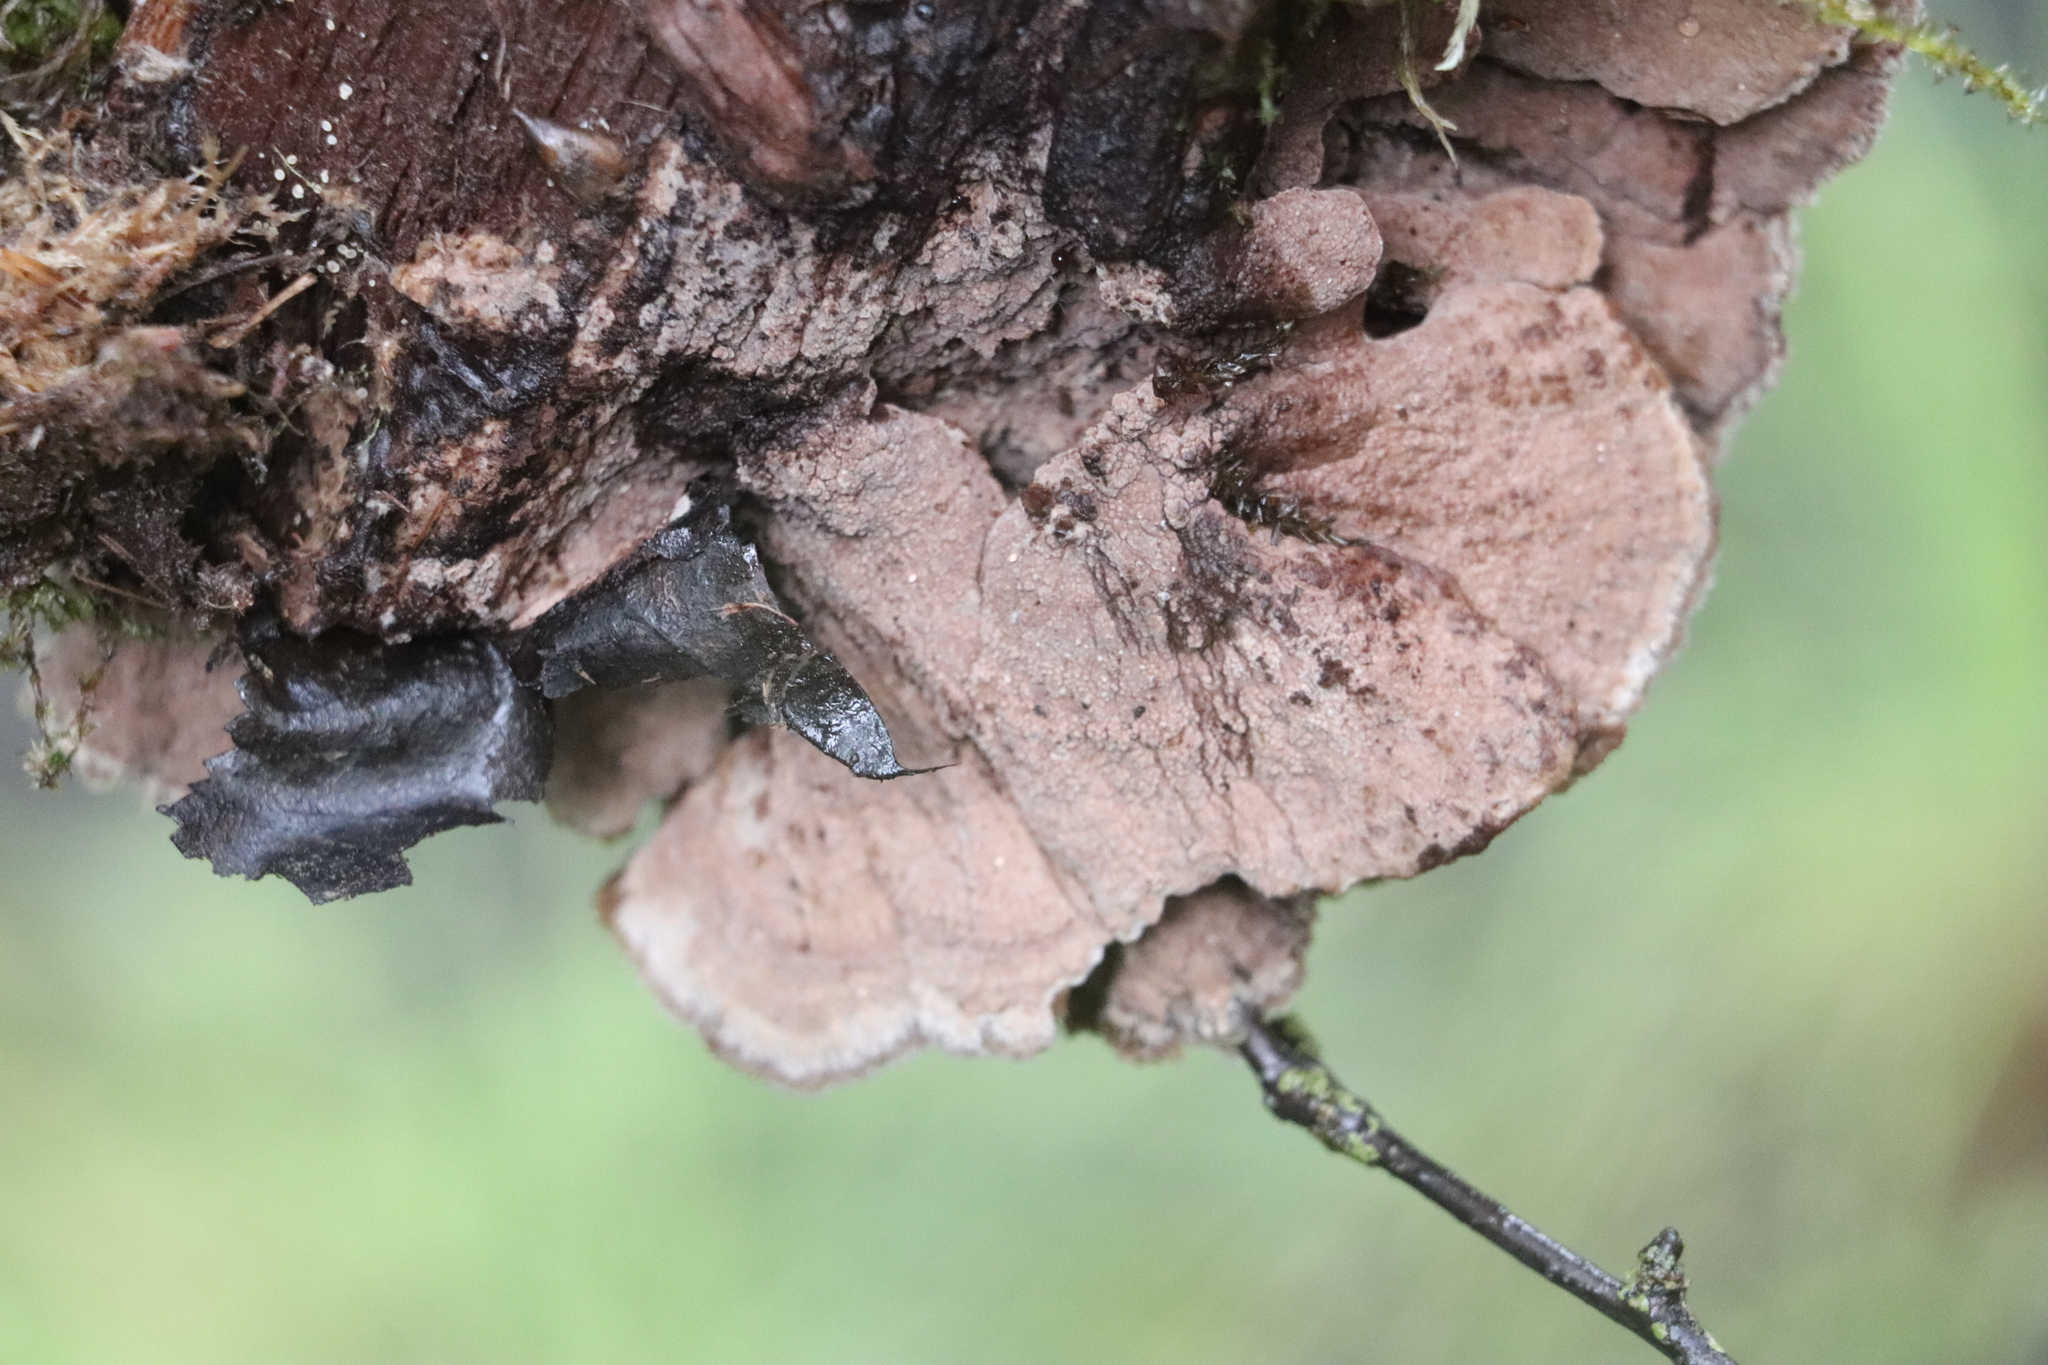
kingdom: Fungi
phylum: Basidiomycota
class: Agaricomycetes
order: Thelephorales
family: Thelephoraceae
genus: Thelephora
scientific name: Thelephora terrestris
